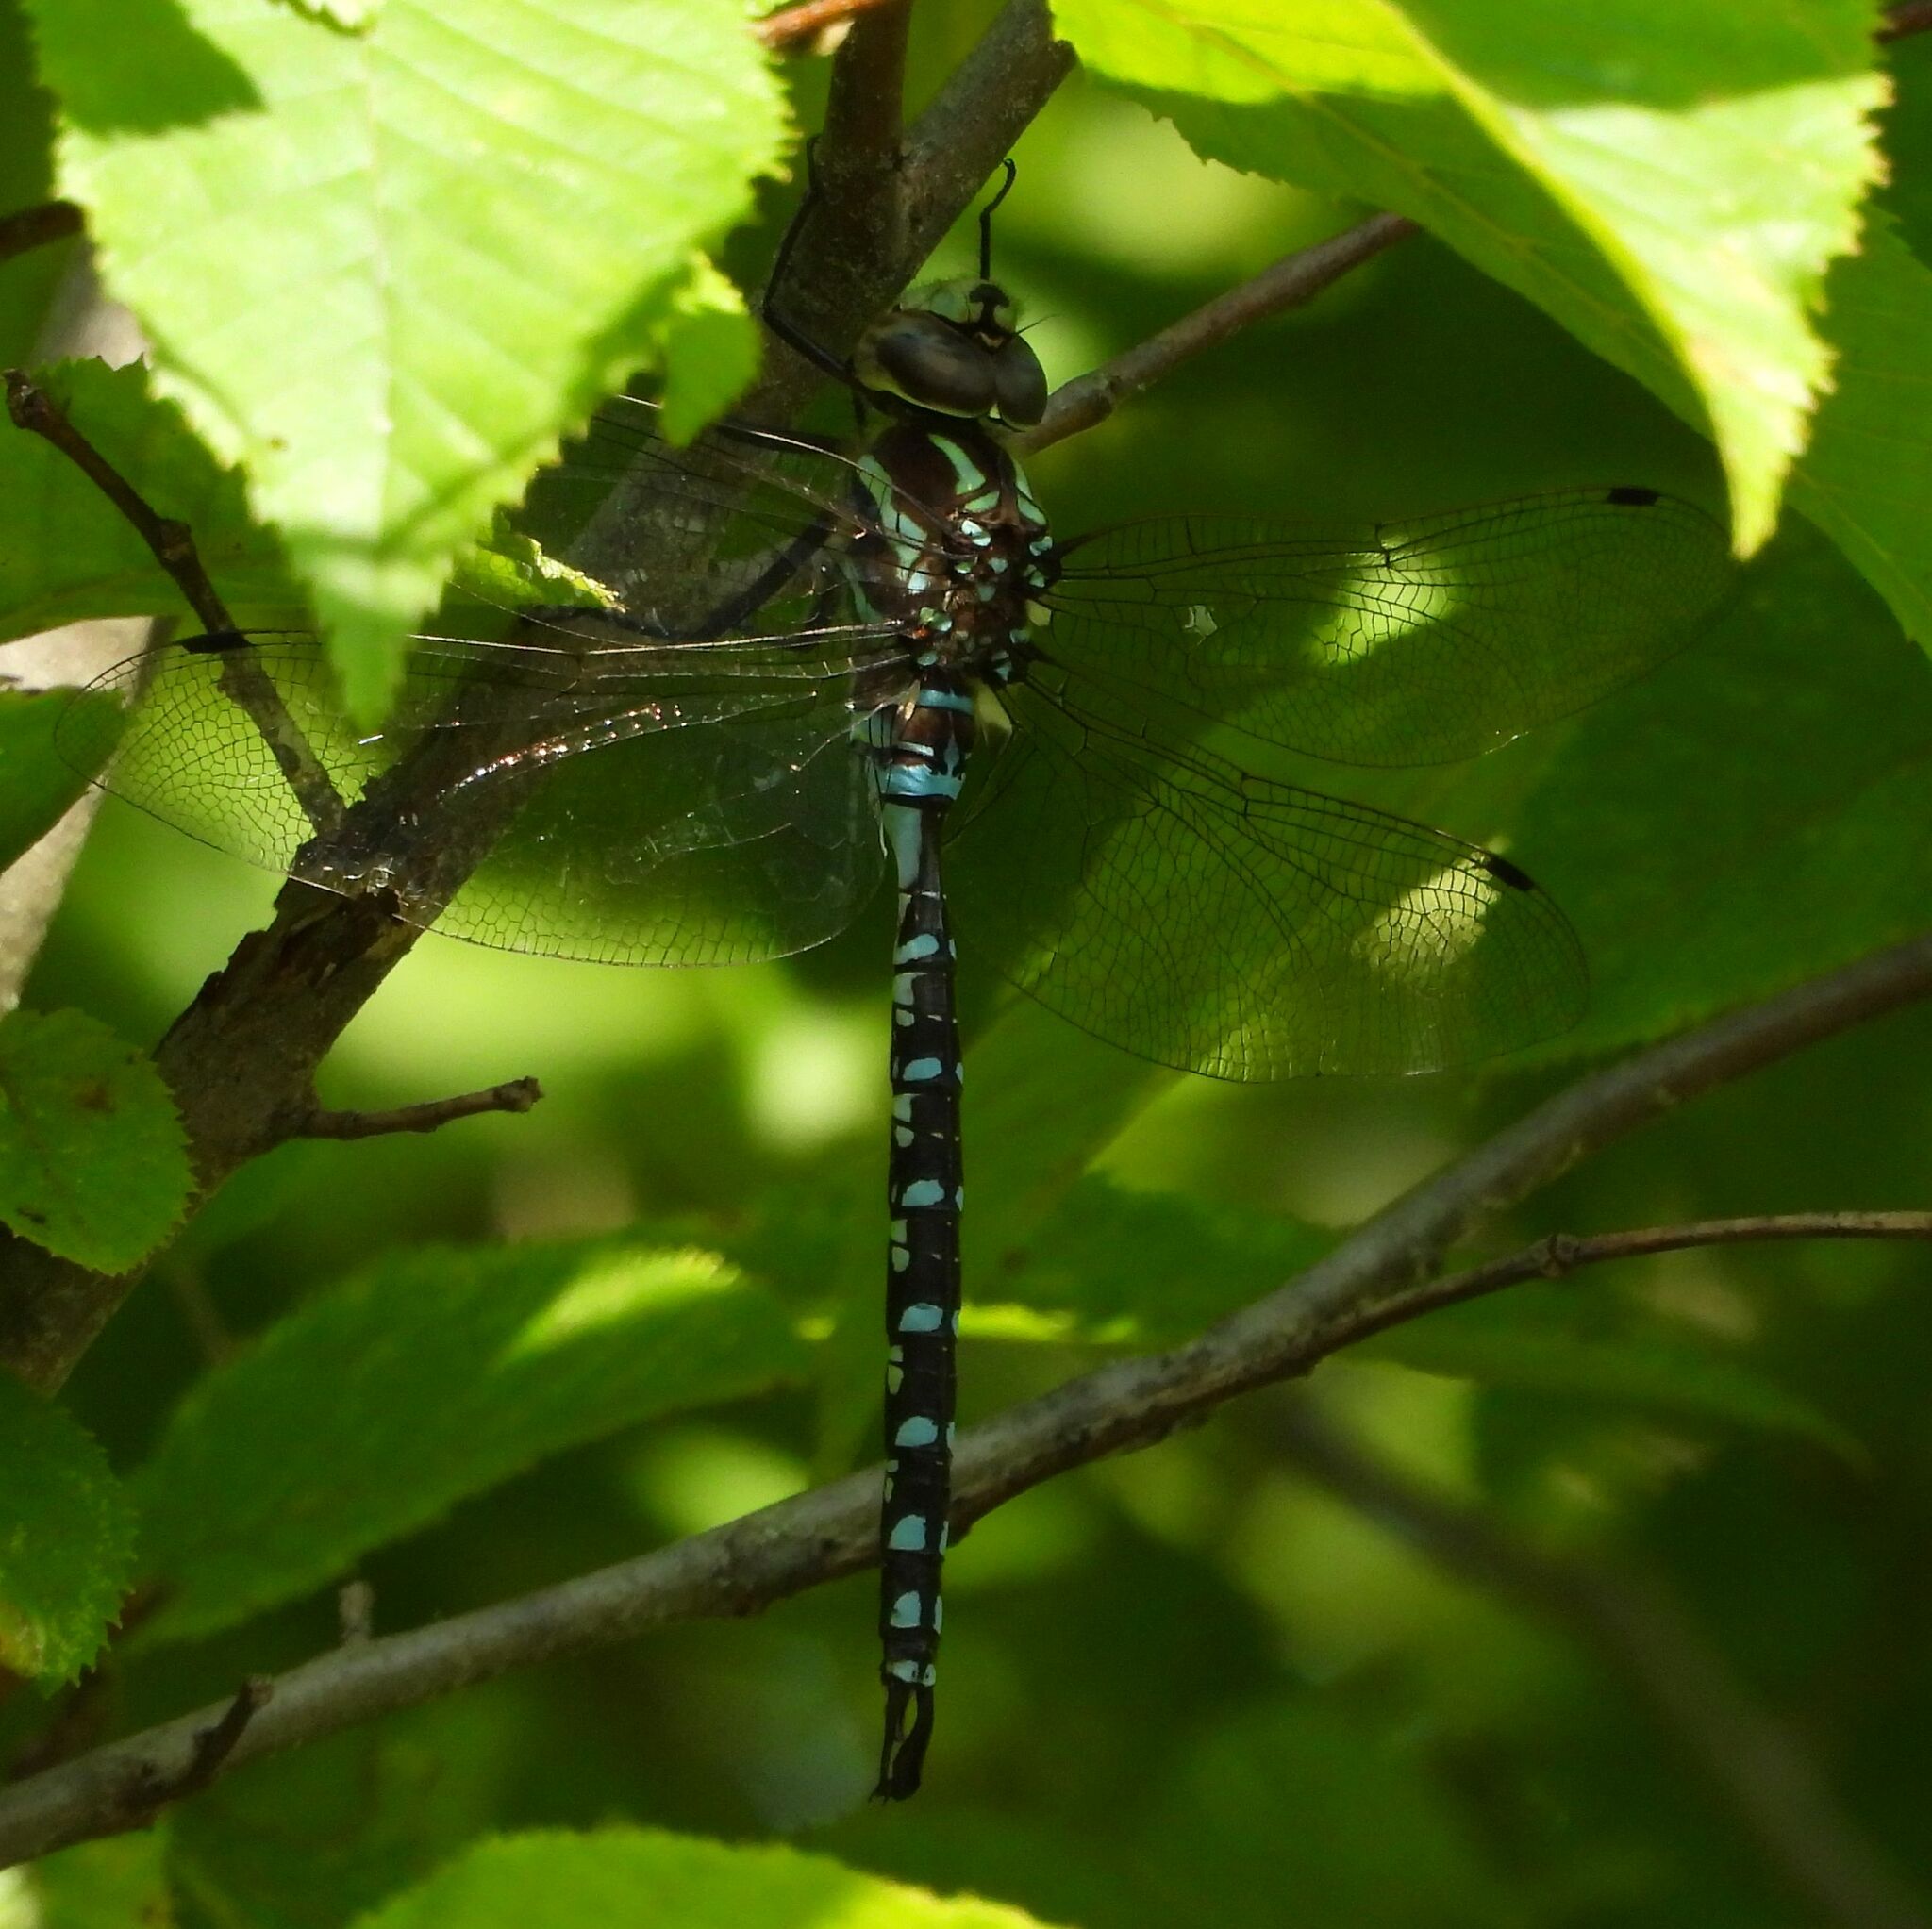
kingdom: Animalia
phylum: Arthropoda
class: Insecta
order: Odonata
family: Aeshnidae
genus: Aeshna
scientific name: Aeshna constricta
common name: Lance-tipped darner
